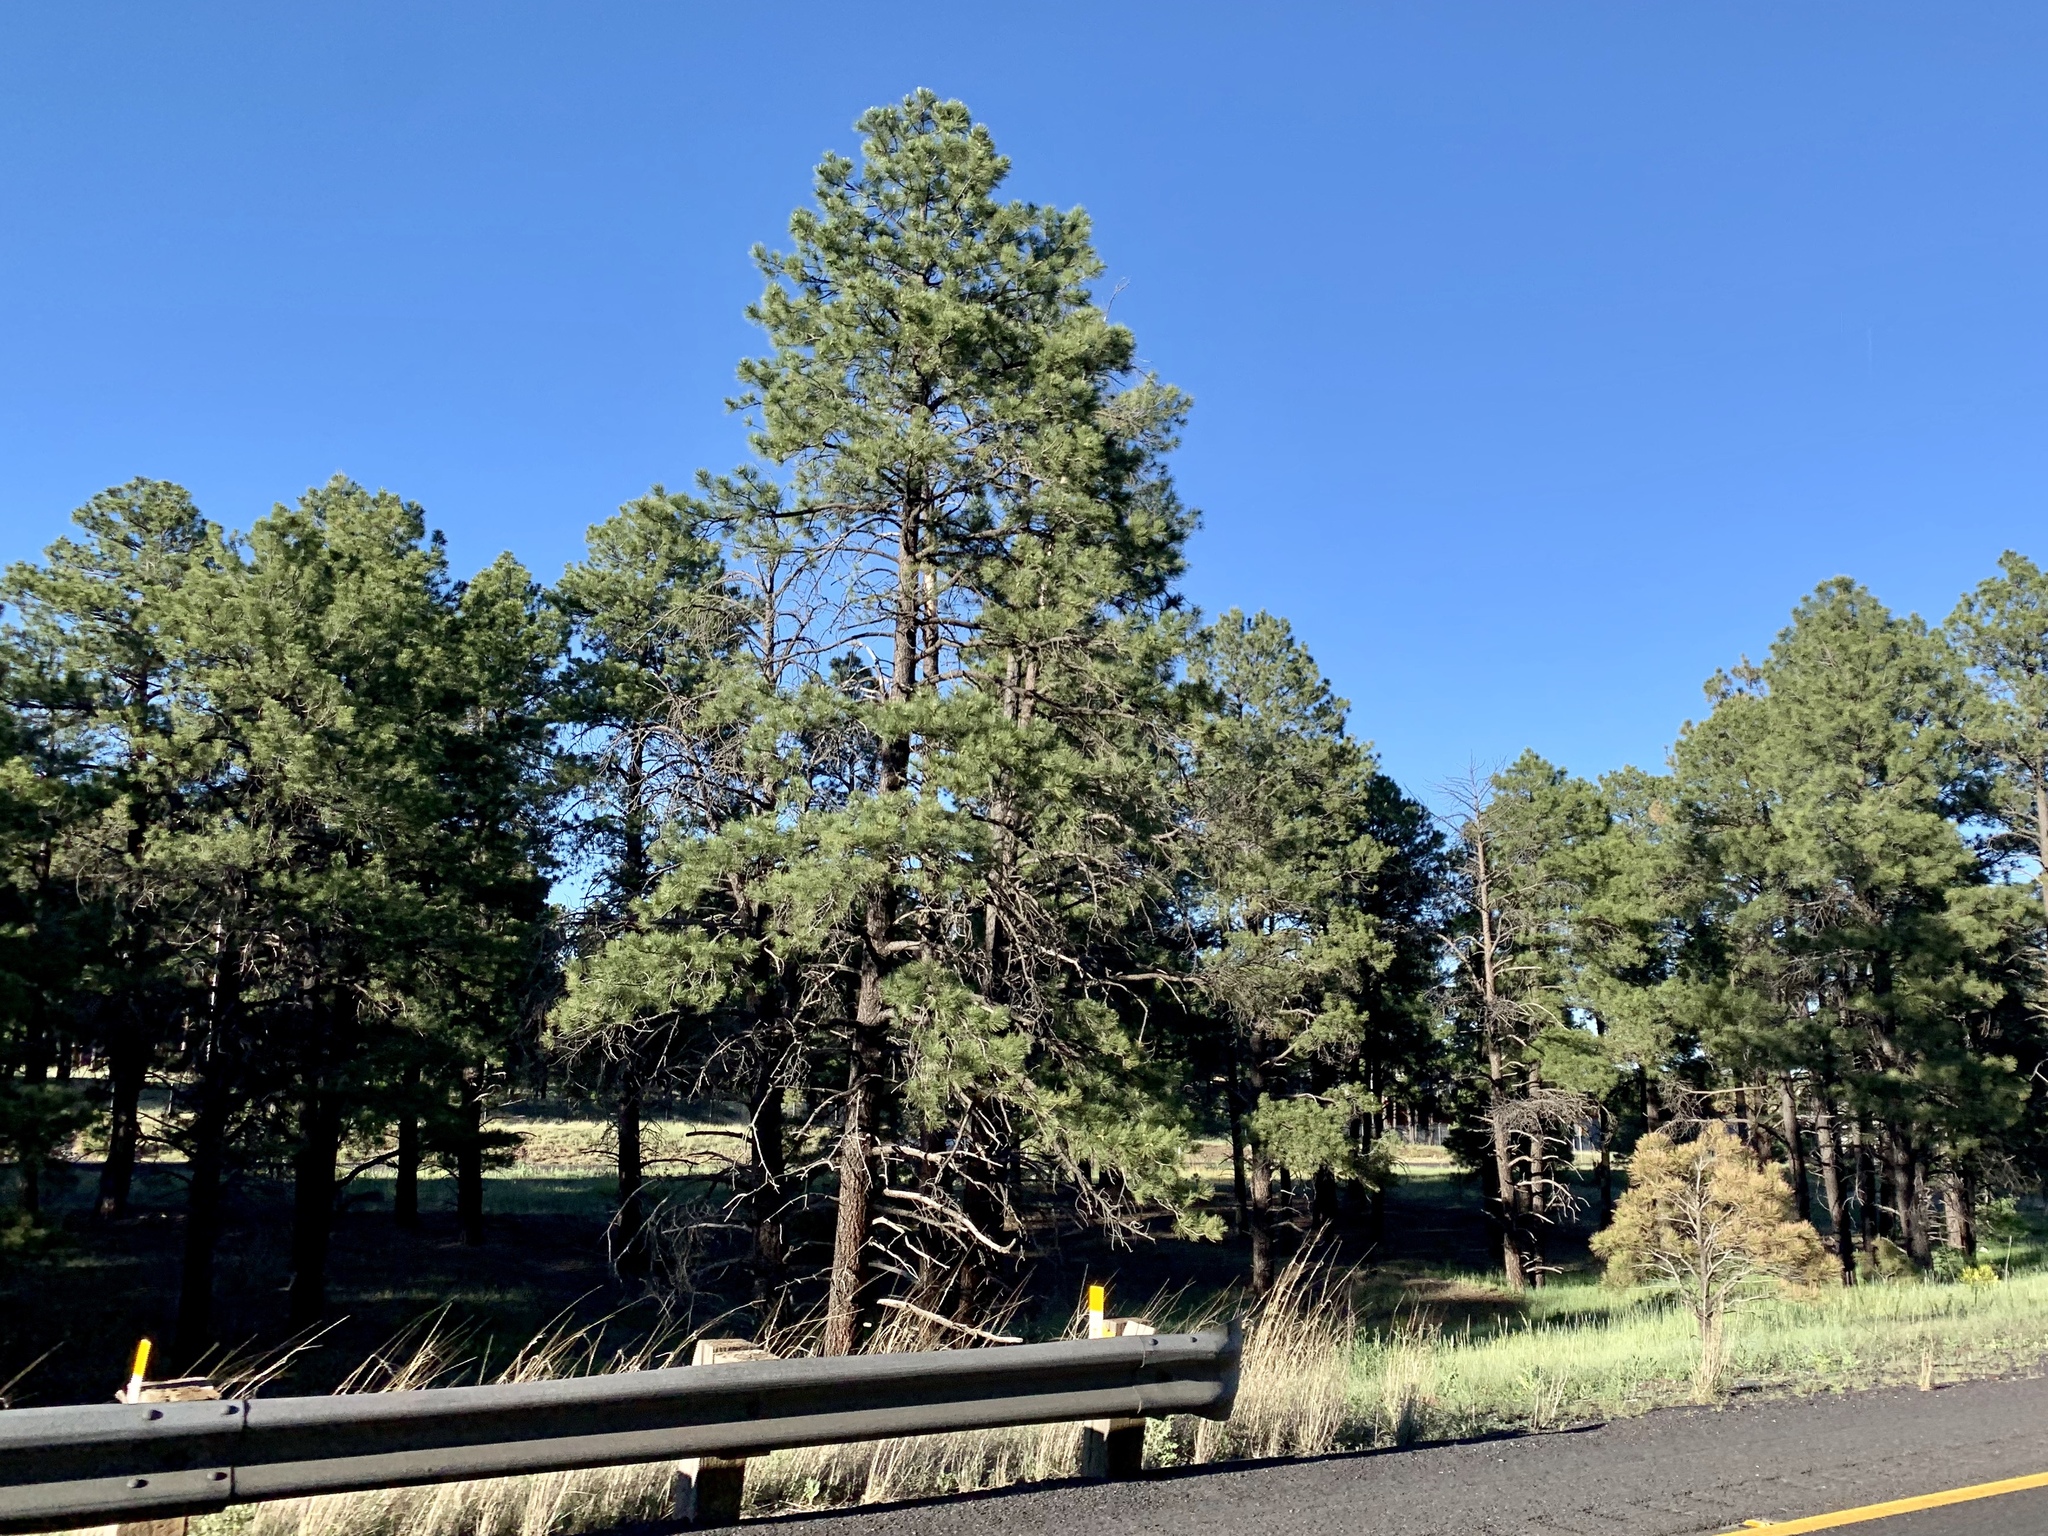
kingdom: Plantae
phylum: Tracheophyta
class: Pinopsida
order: Pinales
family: Pinaceae
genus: Pinus
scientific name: Pinus ponderosa
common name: Western yellow-pine
